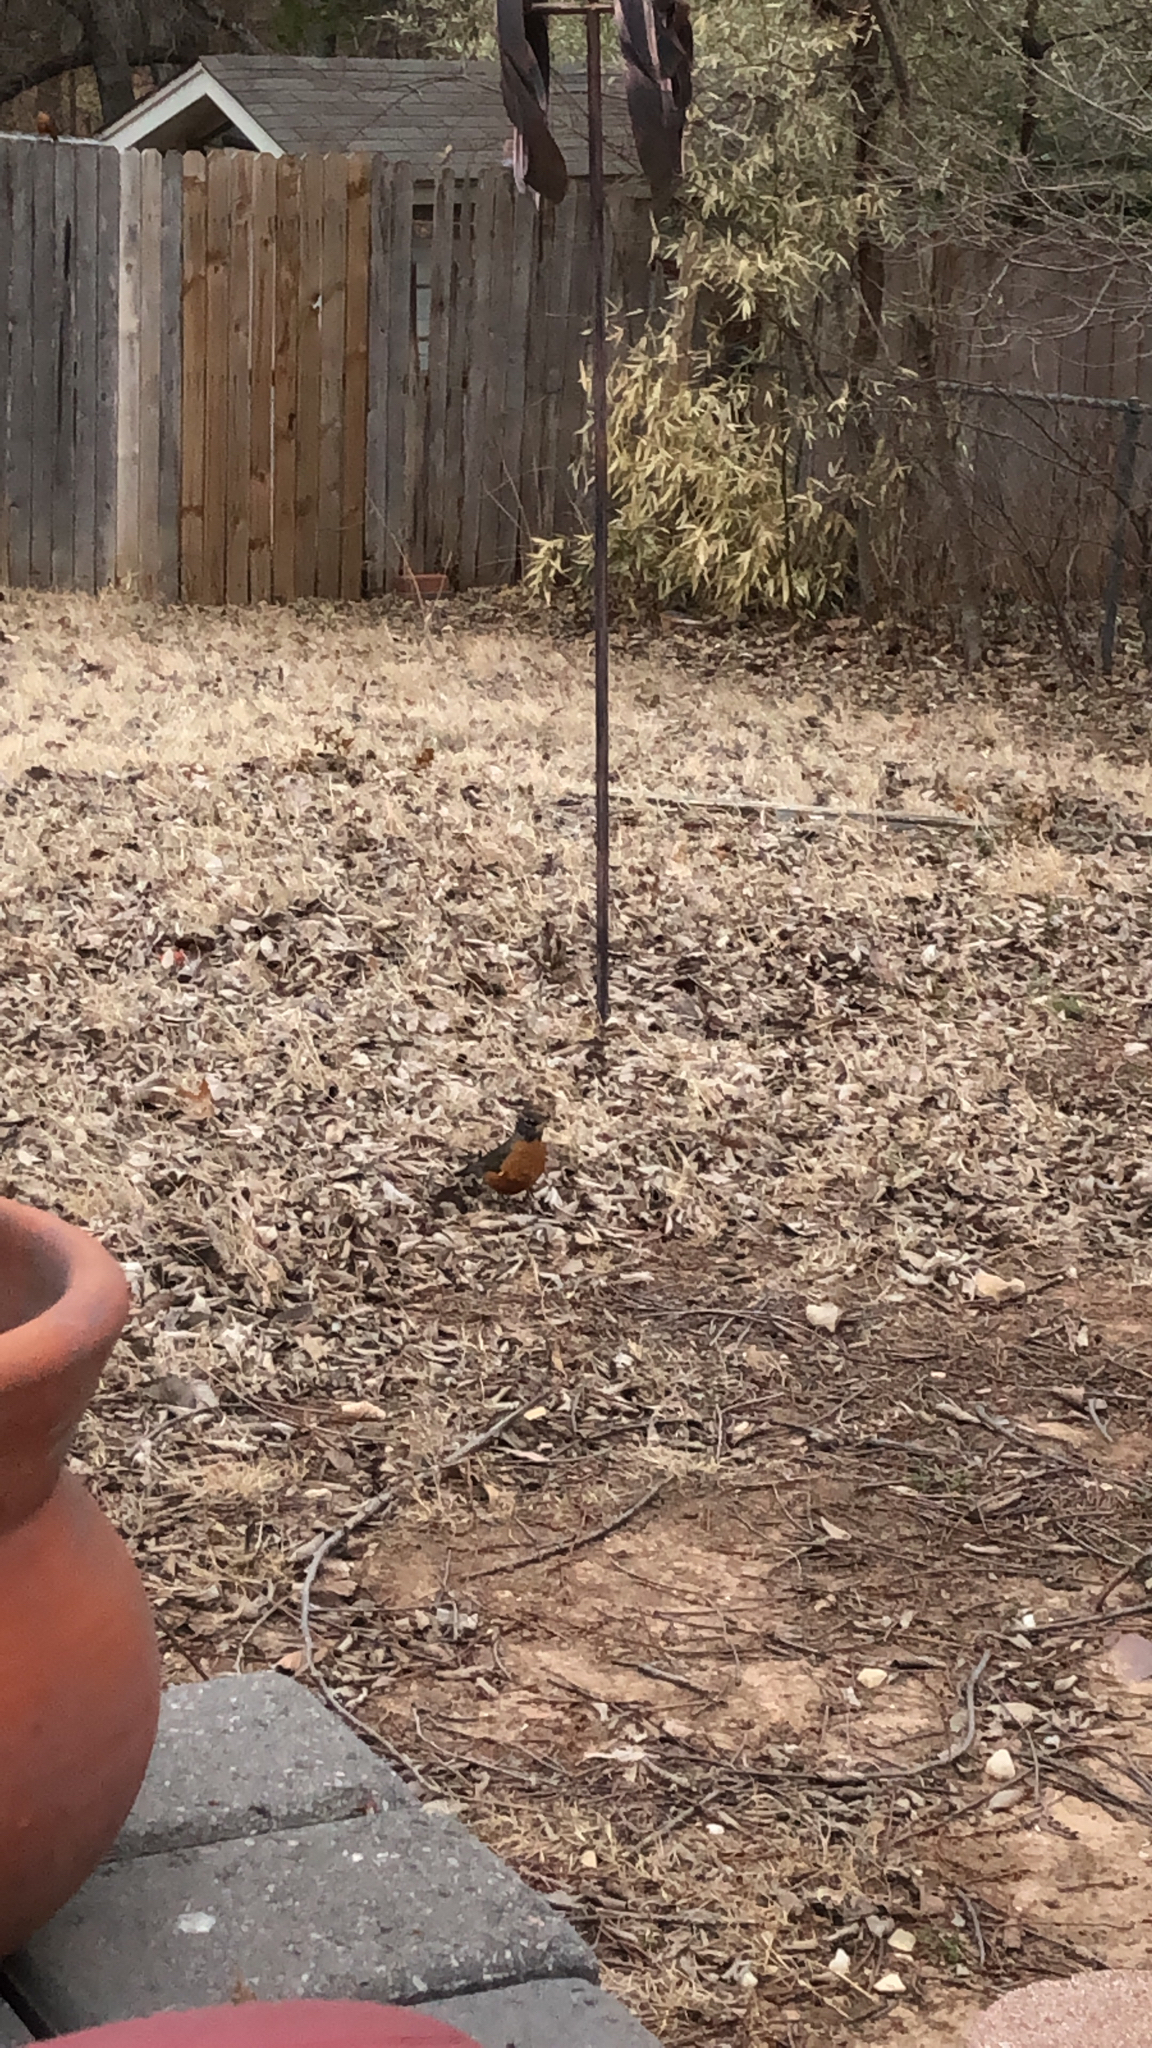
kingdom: Animalia
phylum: Chordata
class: Aves
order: Passeriformes
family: Turdidae
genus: Turdus
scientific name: Turdus migratorius
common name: American robin
